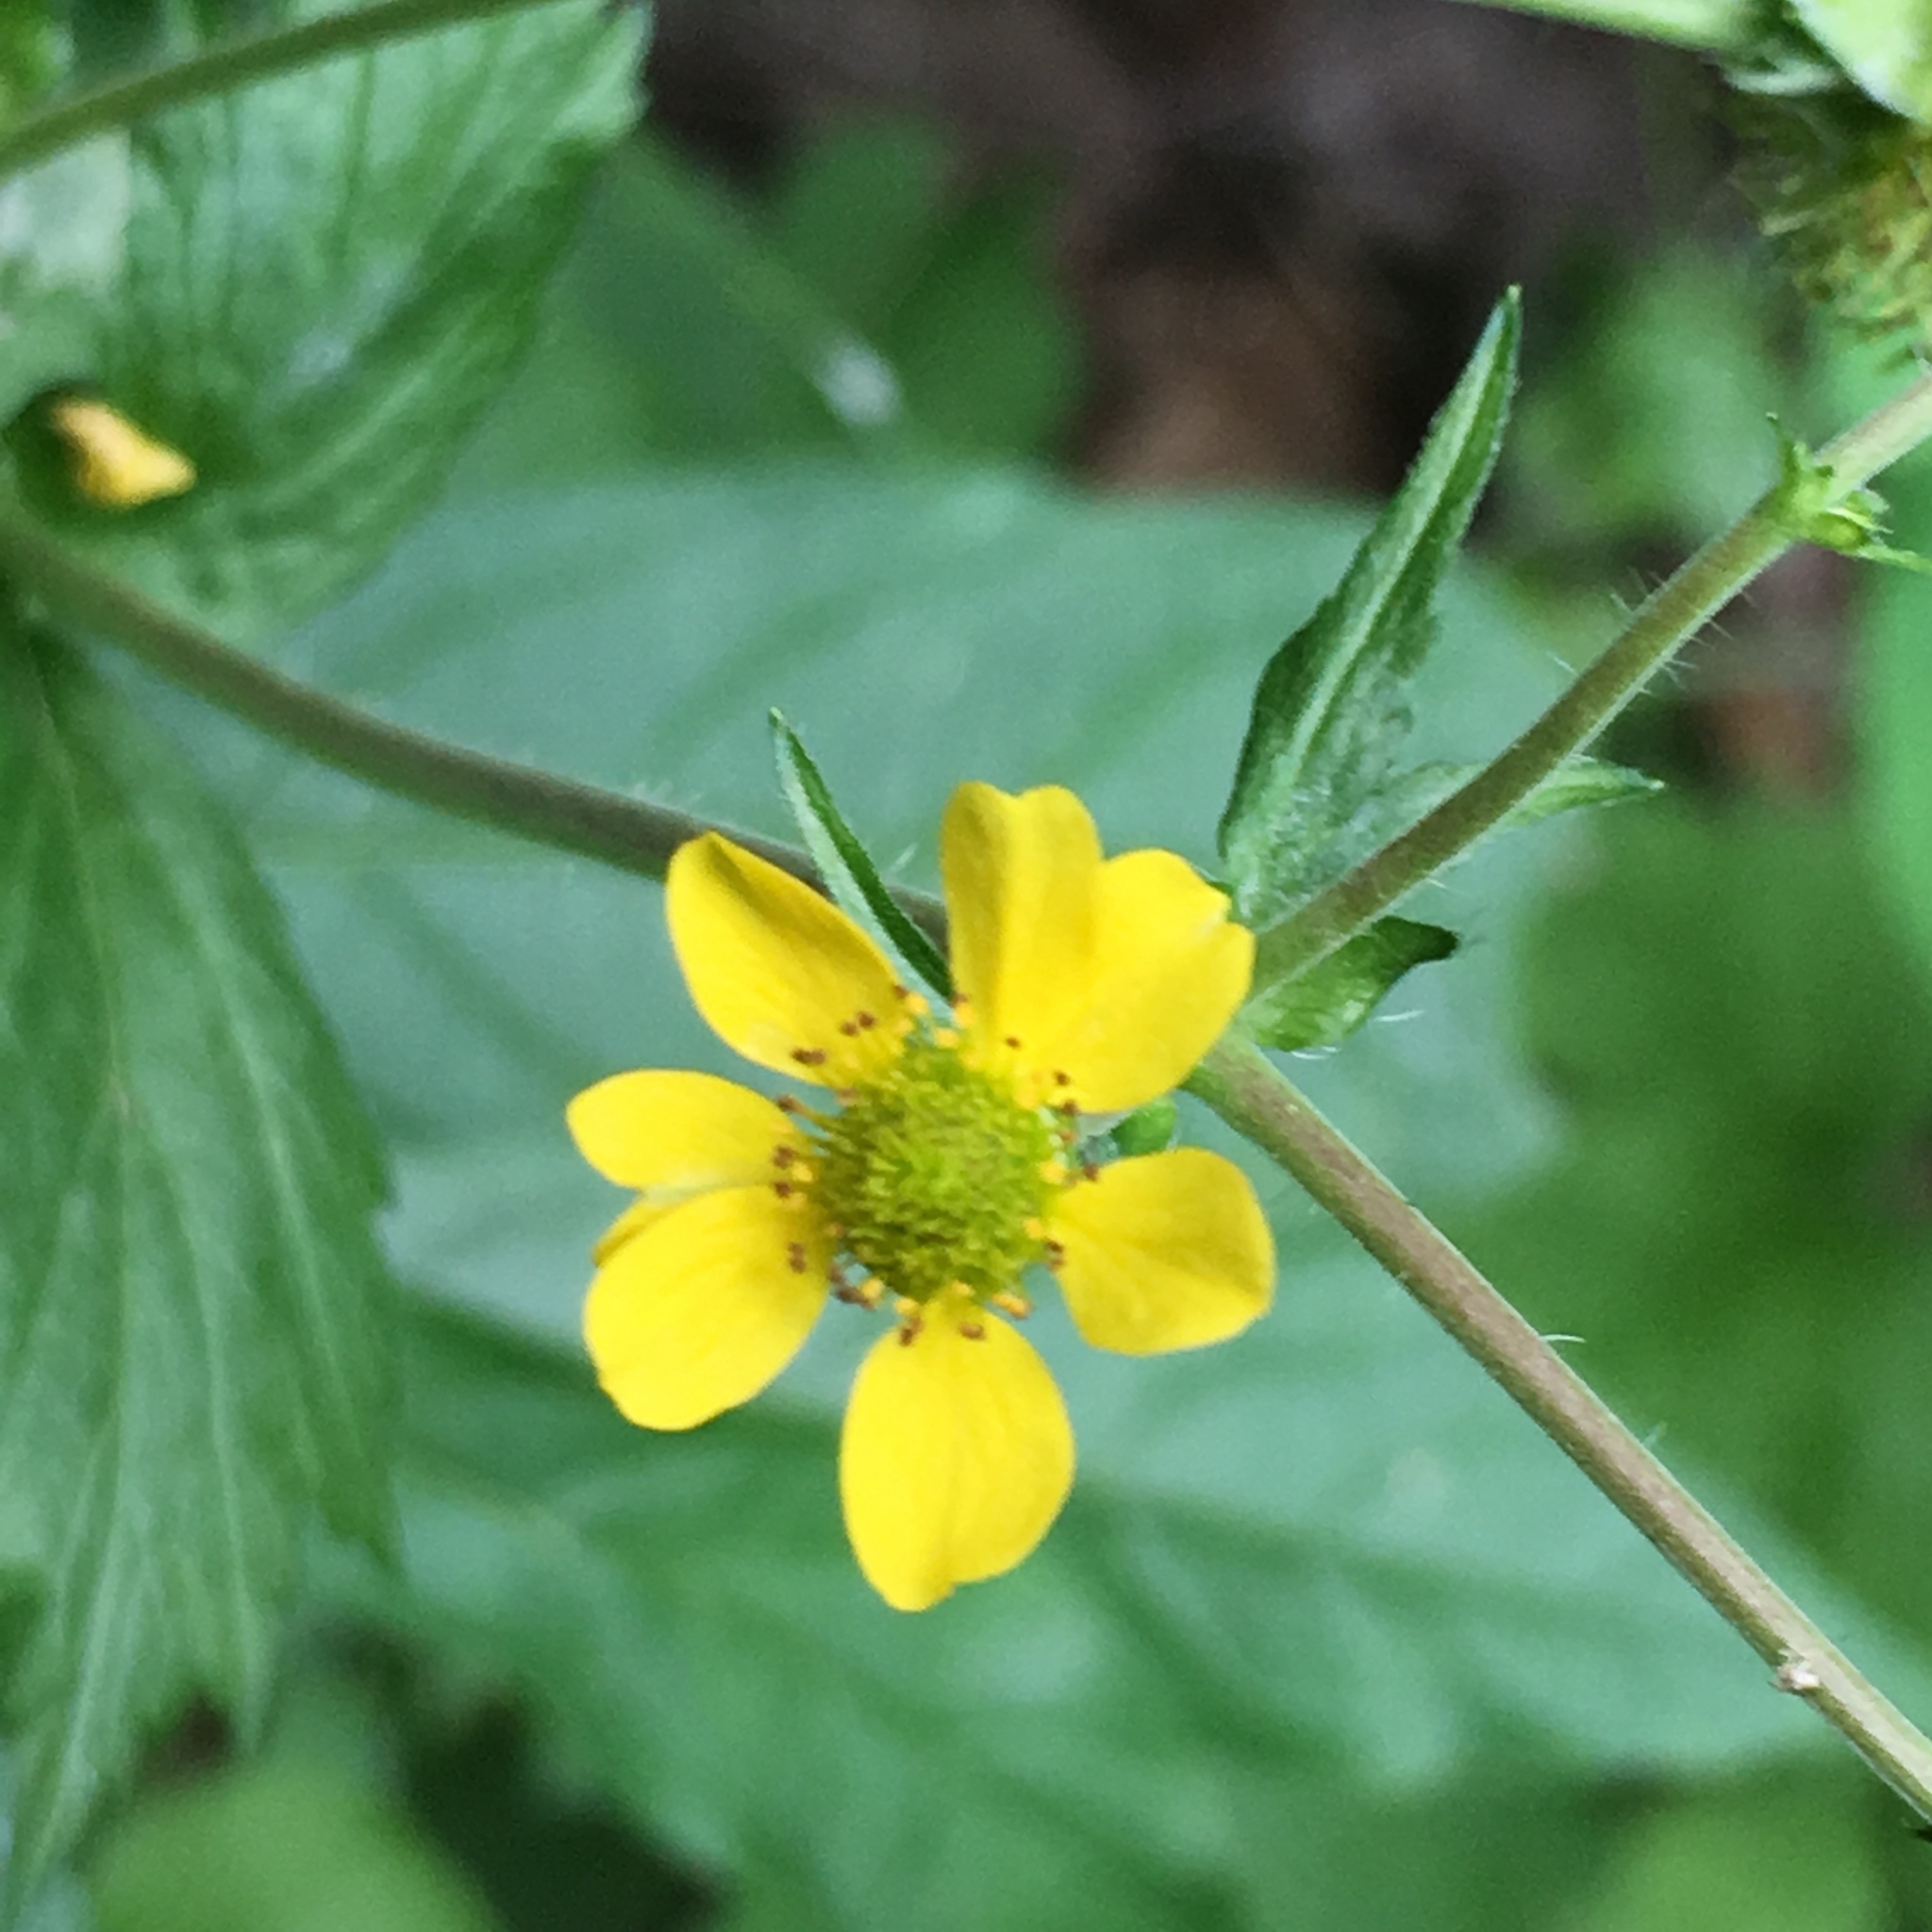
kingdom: Plantae
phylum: Tracheophyta
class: Magnoliopsida
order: Rosales
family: Rosaceae
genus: Geum
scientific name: Geum macrophyllum
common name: Large-leaved avens
